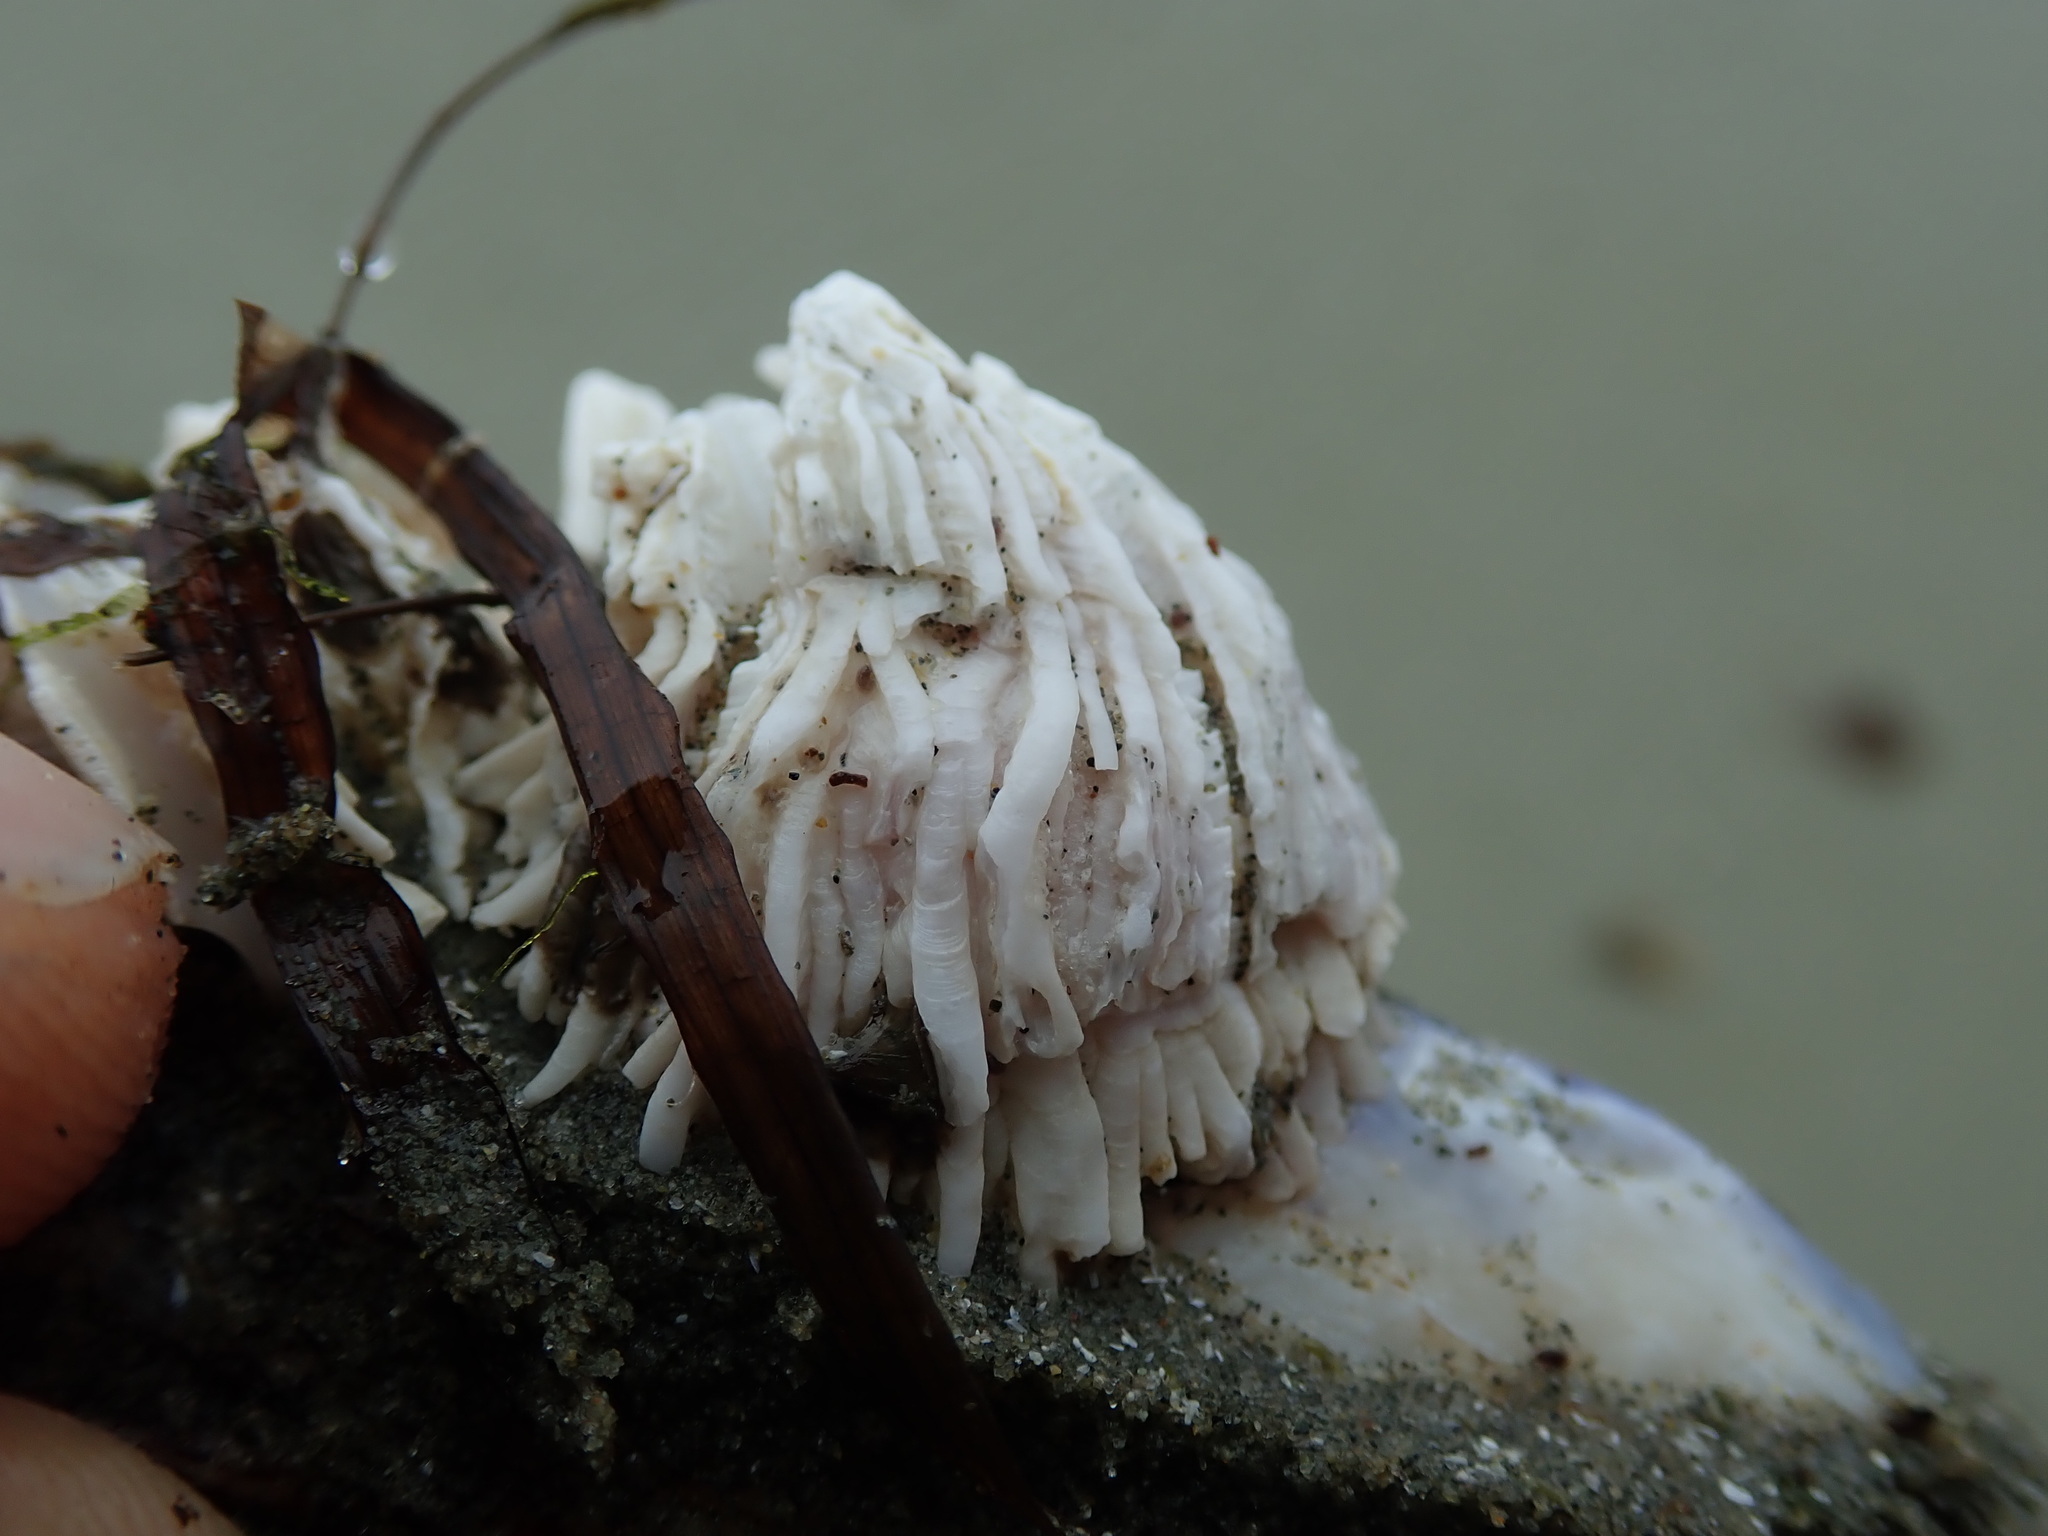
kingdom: Animalia
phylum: Arthropoda
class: Maxillopoda
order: Sessilia
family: Archaeobalanidae
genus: Semibalanus
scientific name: Semibalanus cariosus
